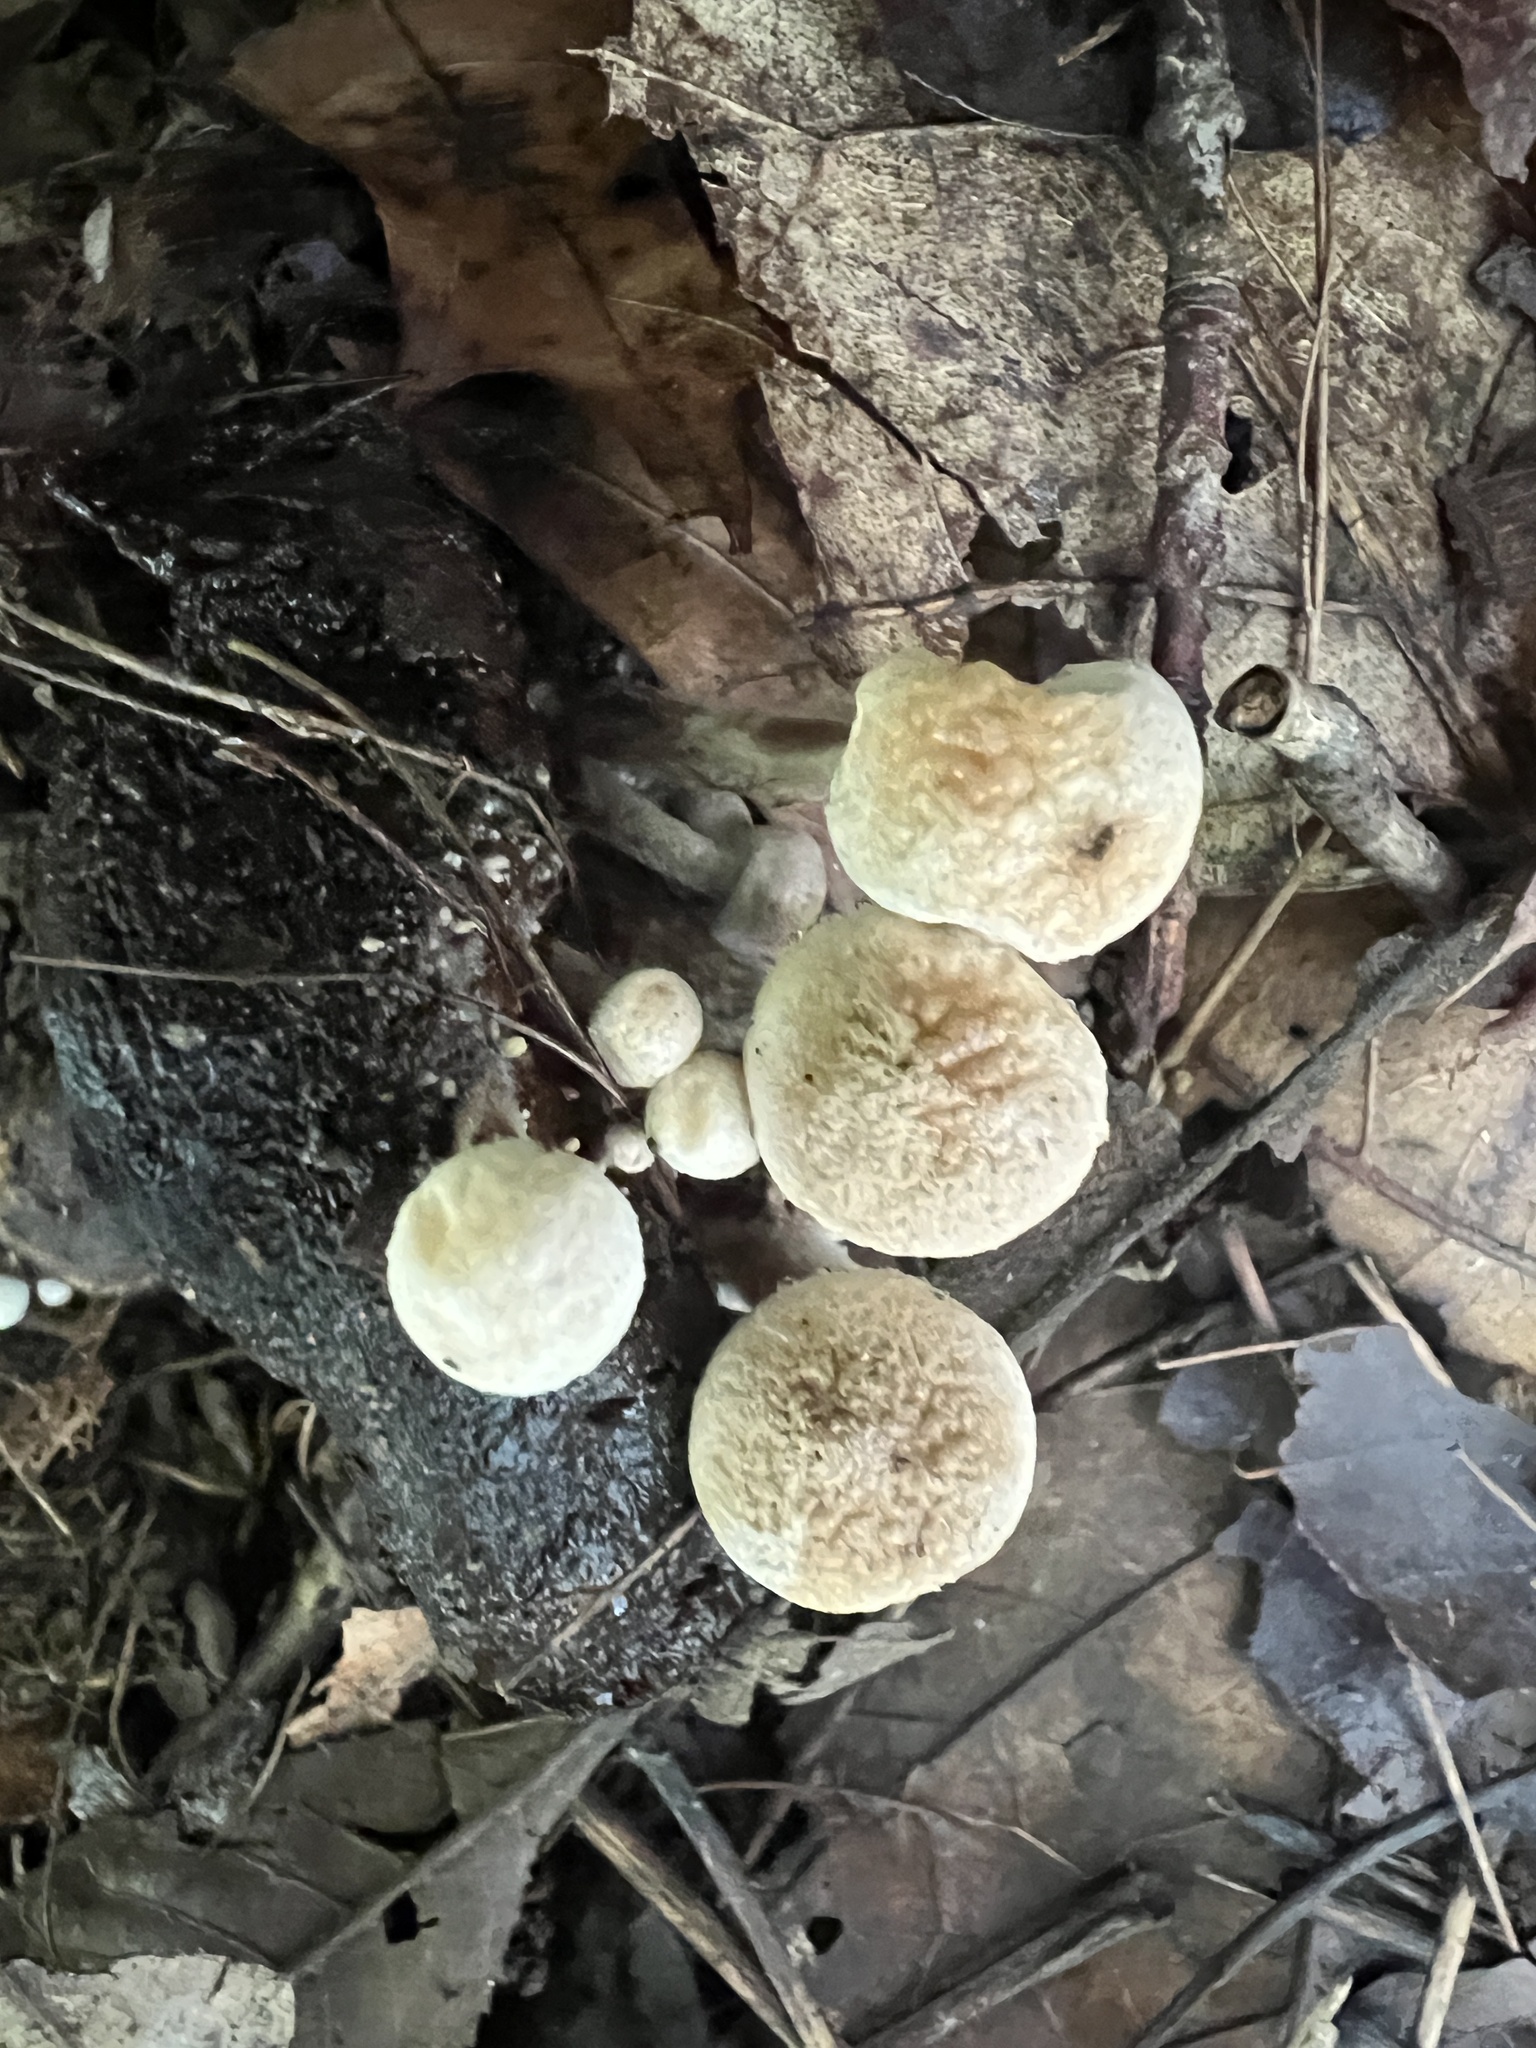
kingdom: Fungi
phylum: Basidiomycota
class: Agaricomycetes
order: Agaricales
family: Lyophyllaceae
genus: Asterophora
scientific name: Asterophora lycoperdoides
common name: Pick-a-back toadstool
